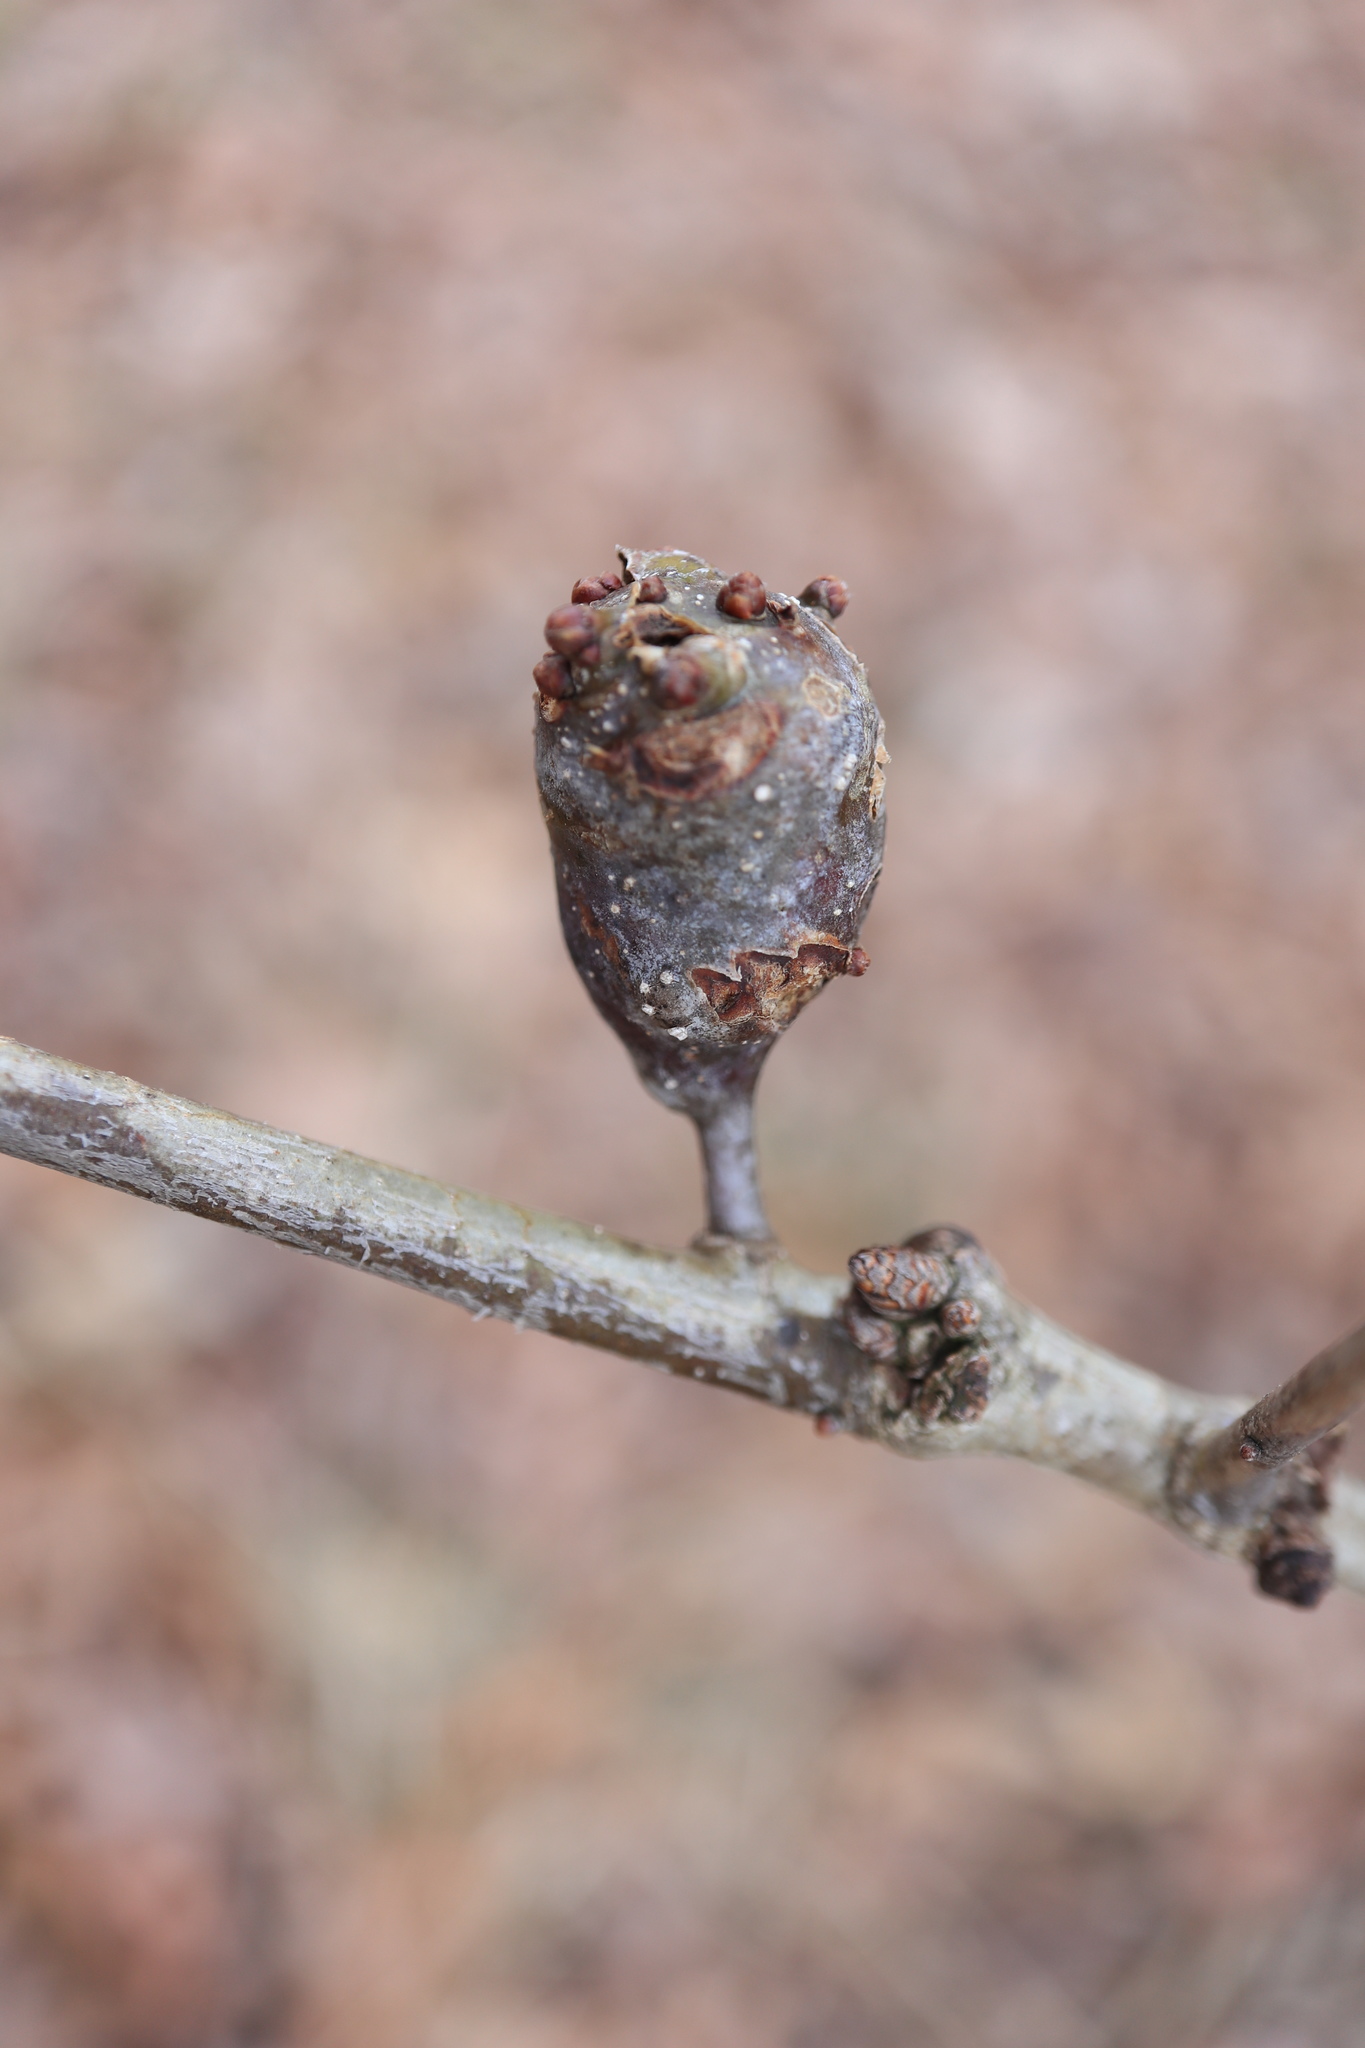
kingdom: Animalia
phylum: Arthropoda
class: Insecta
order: Hymenoptera
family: Cynipidae
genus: Callirhytis
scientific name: Callirhytis clavula
